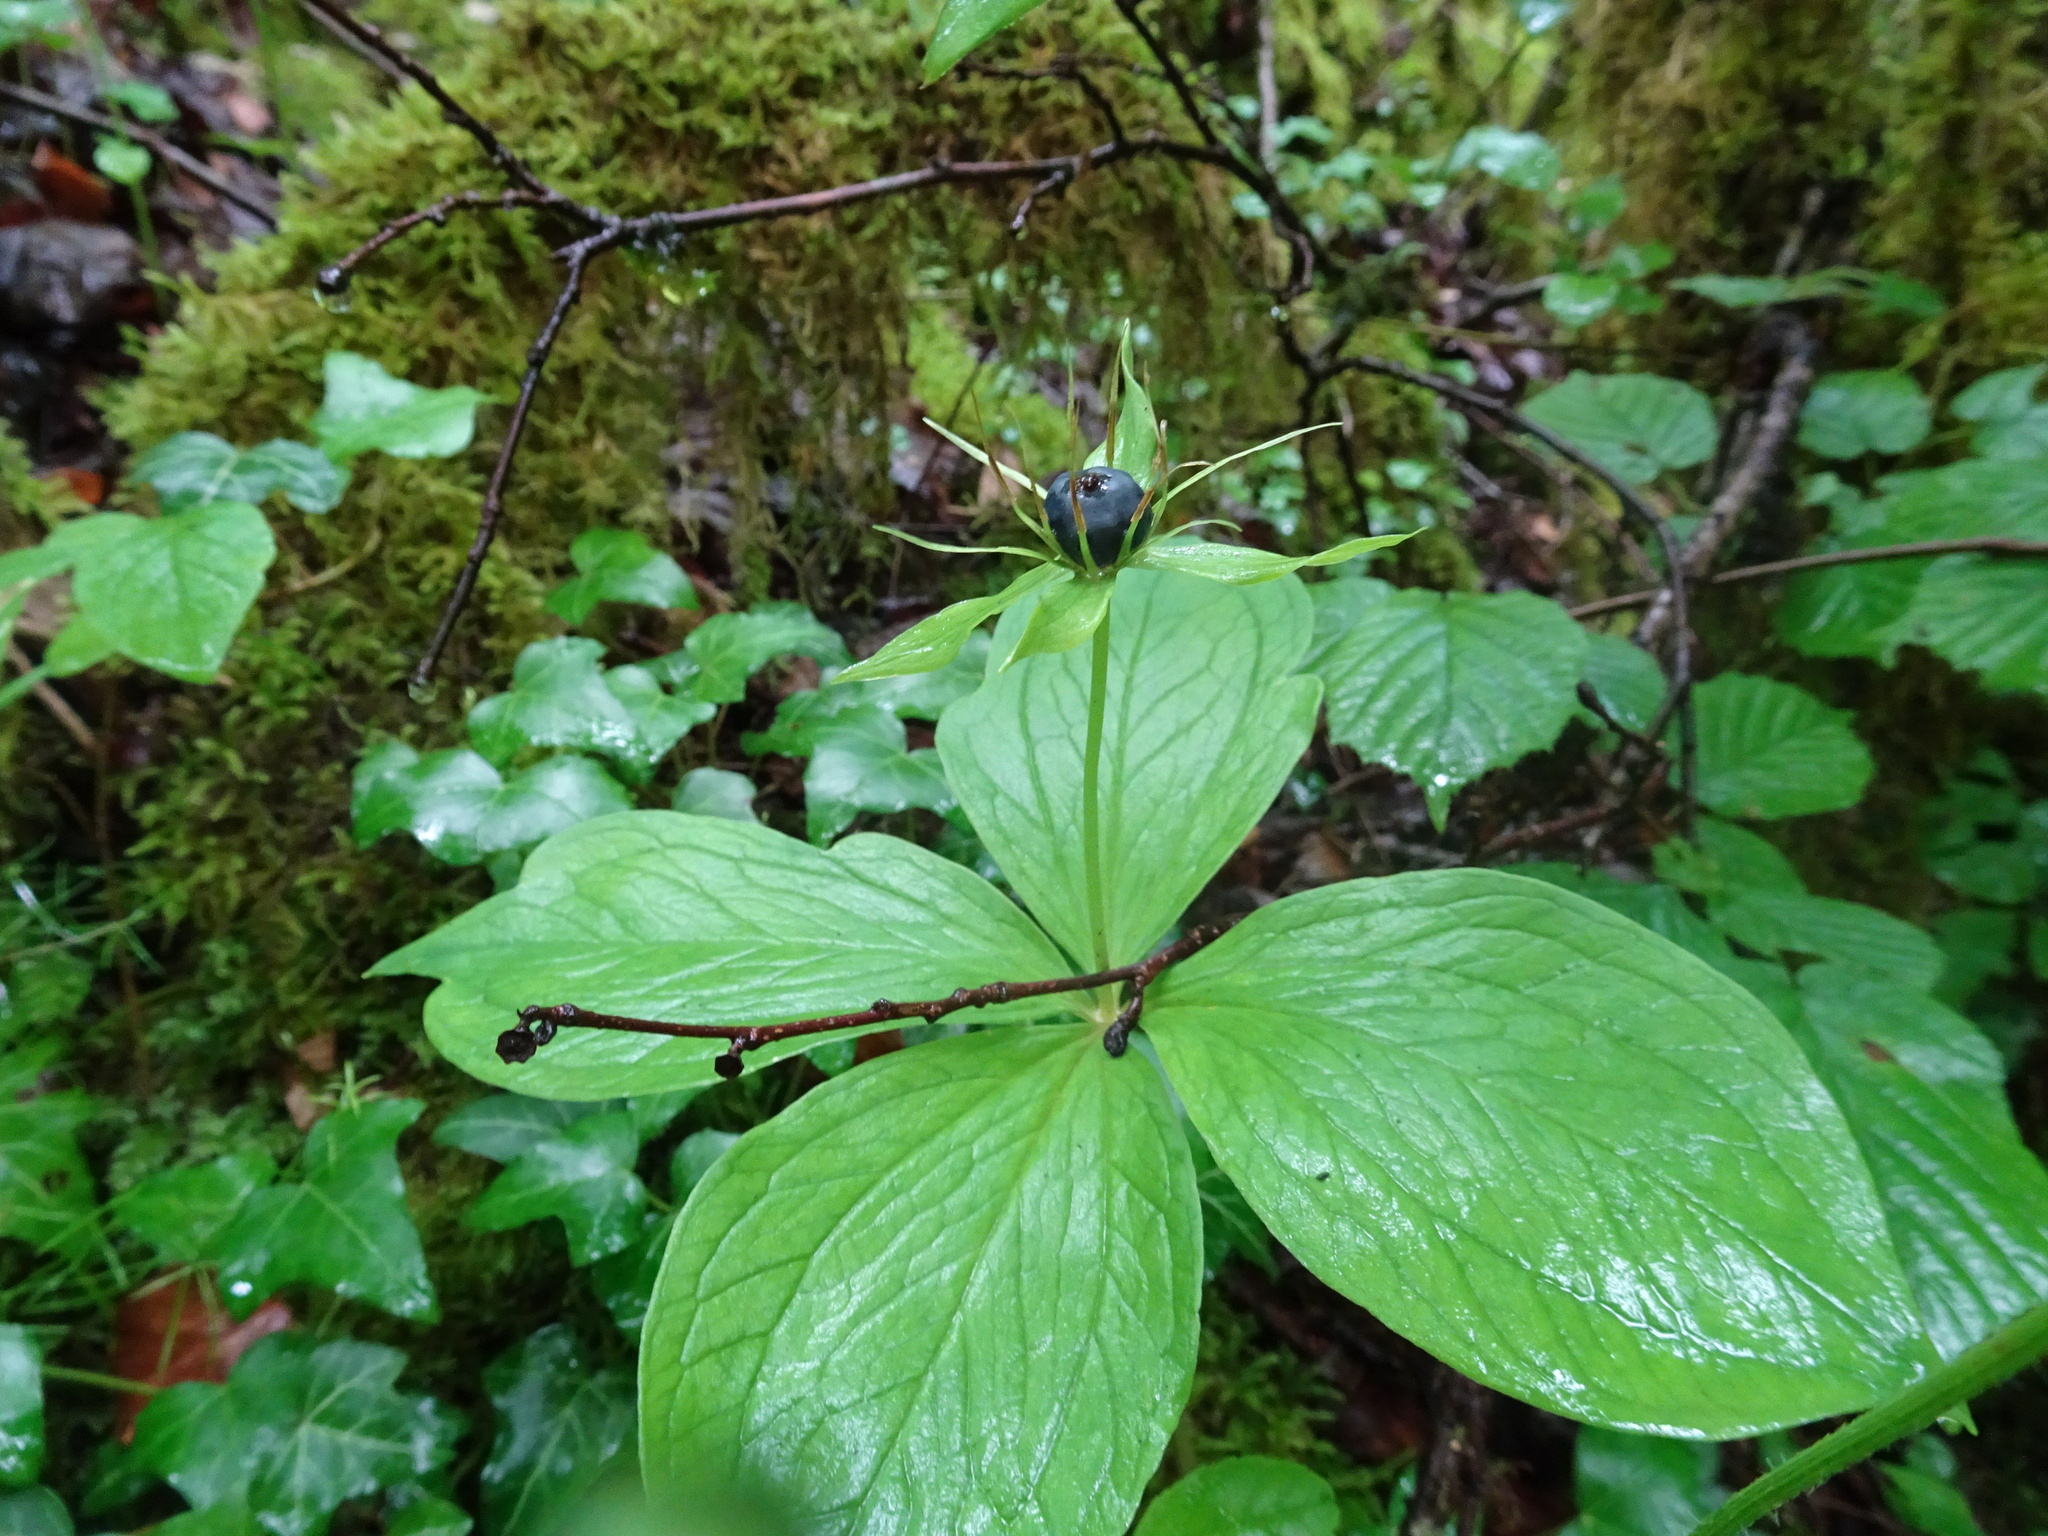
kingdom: Plantae
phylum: Tracheophyta
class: Liliopsida
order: Liliales
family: Melanthiaceae
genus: Paris
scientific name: Paris quadrifolia
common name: Herb-paris
